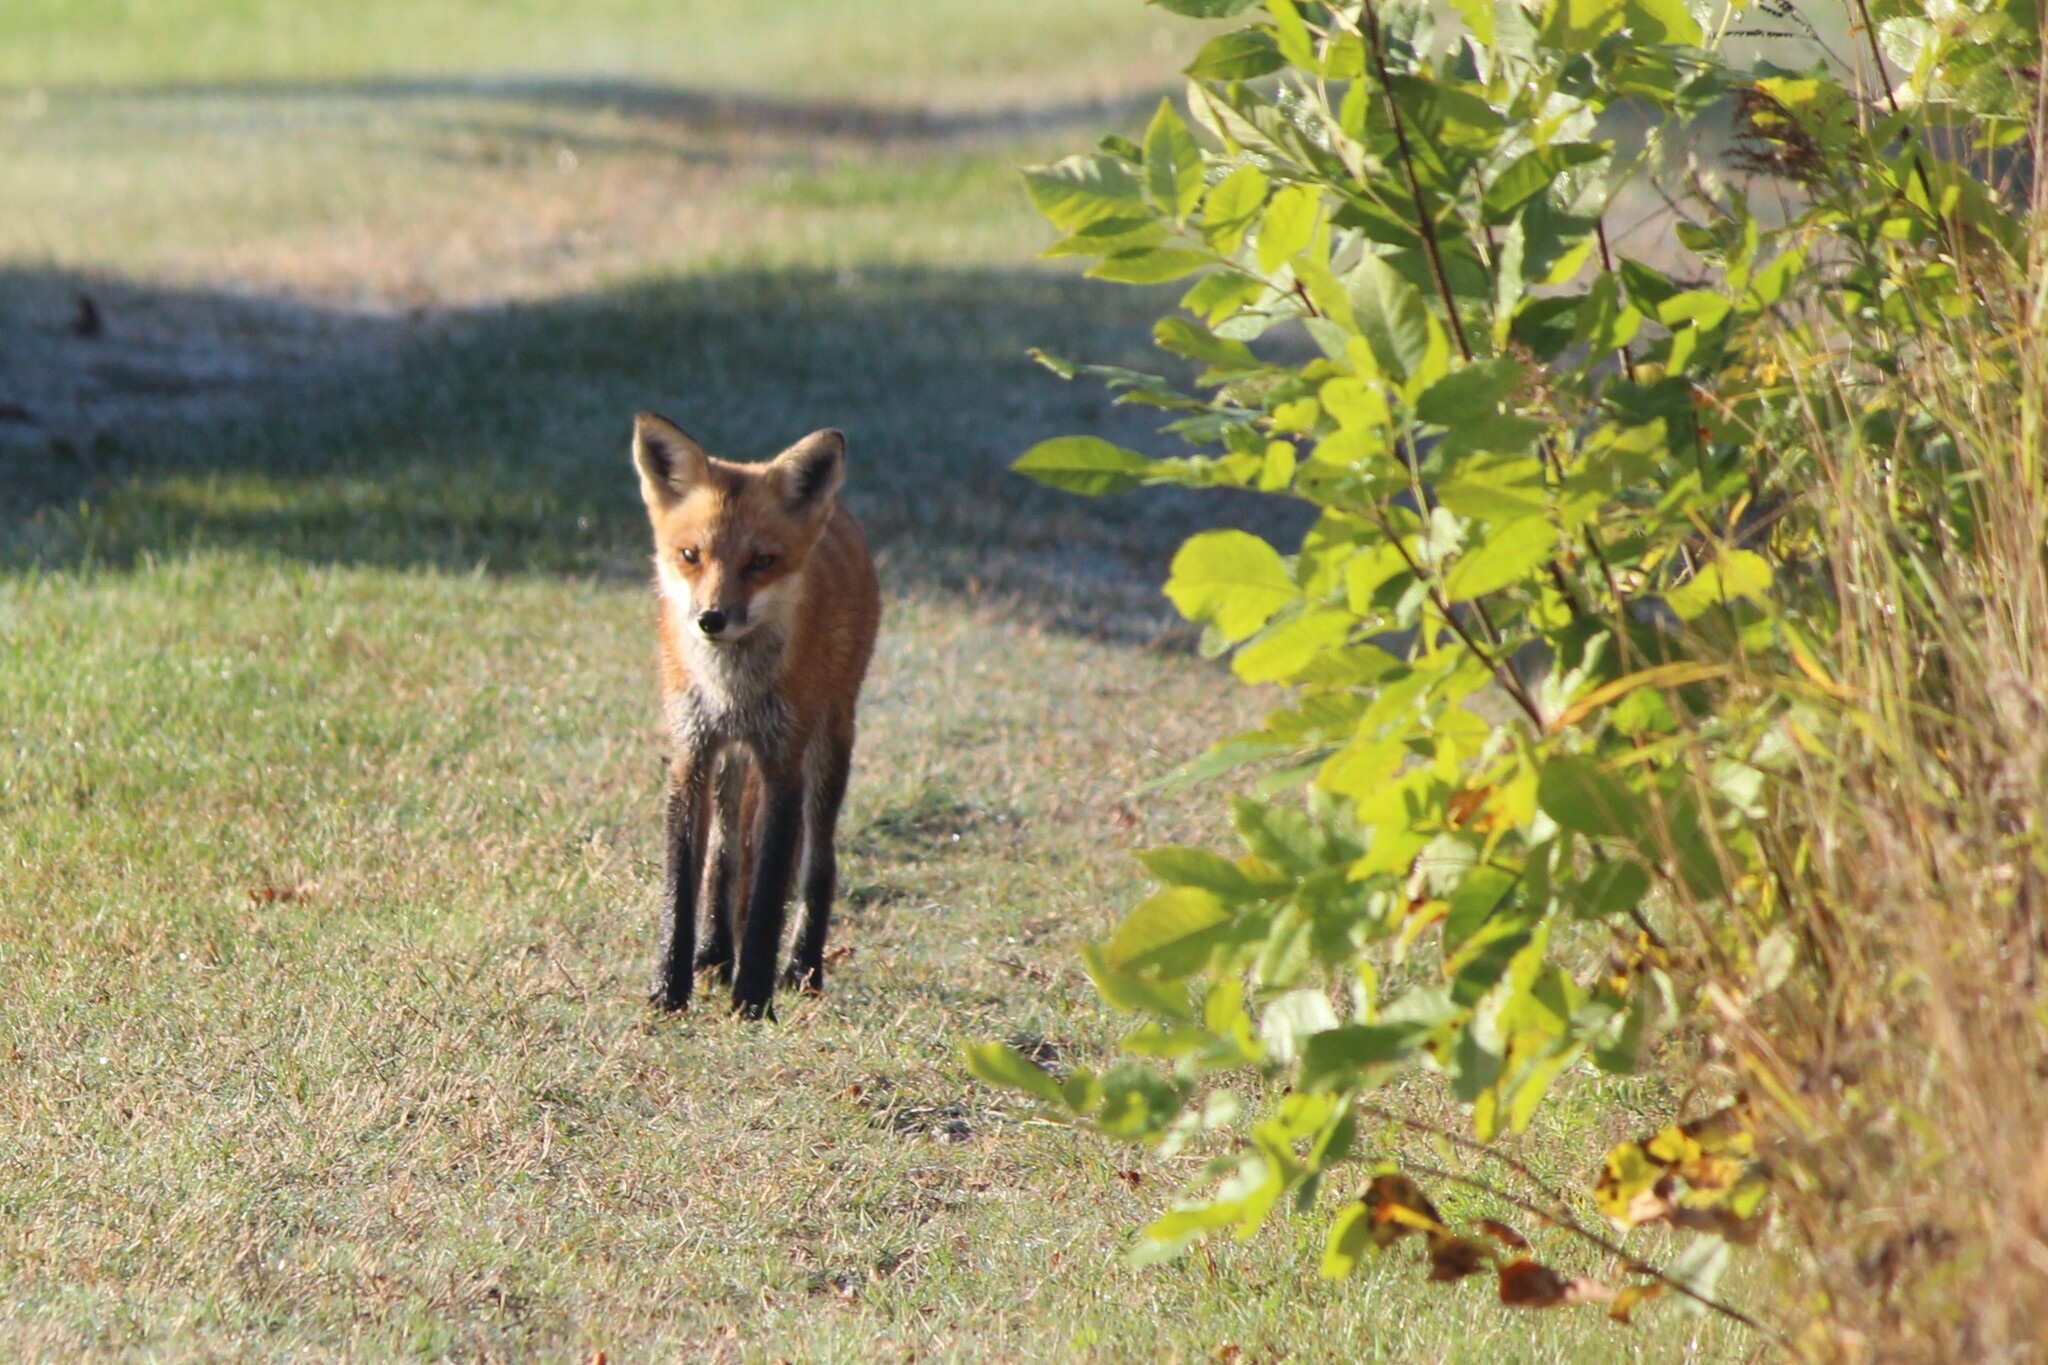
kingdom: Animalia
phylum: Chordata
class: Mammalia
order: Carnivora
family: Canidae
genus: Vulpes
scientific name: Vulpes vulpes
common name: Red fox
